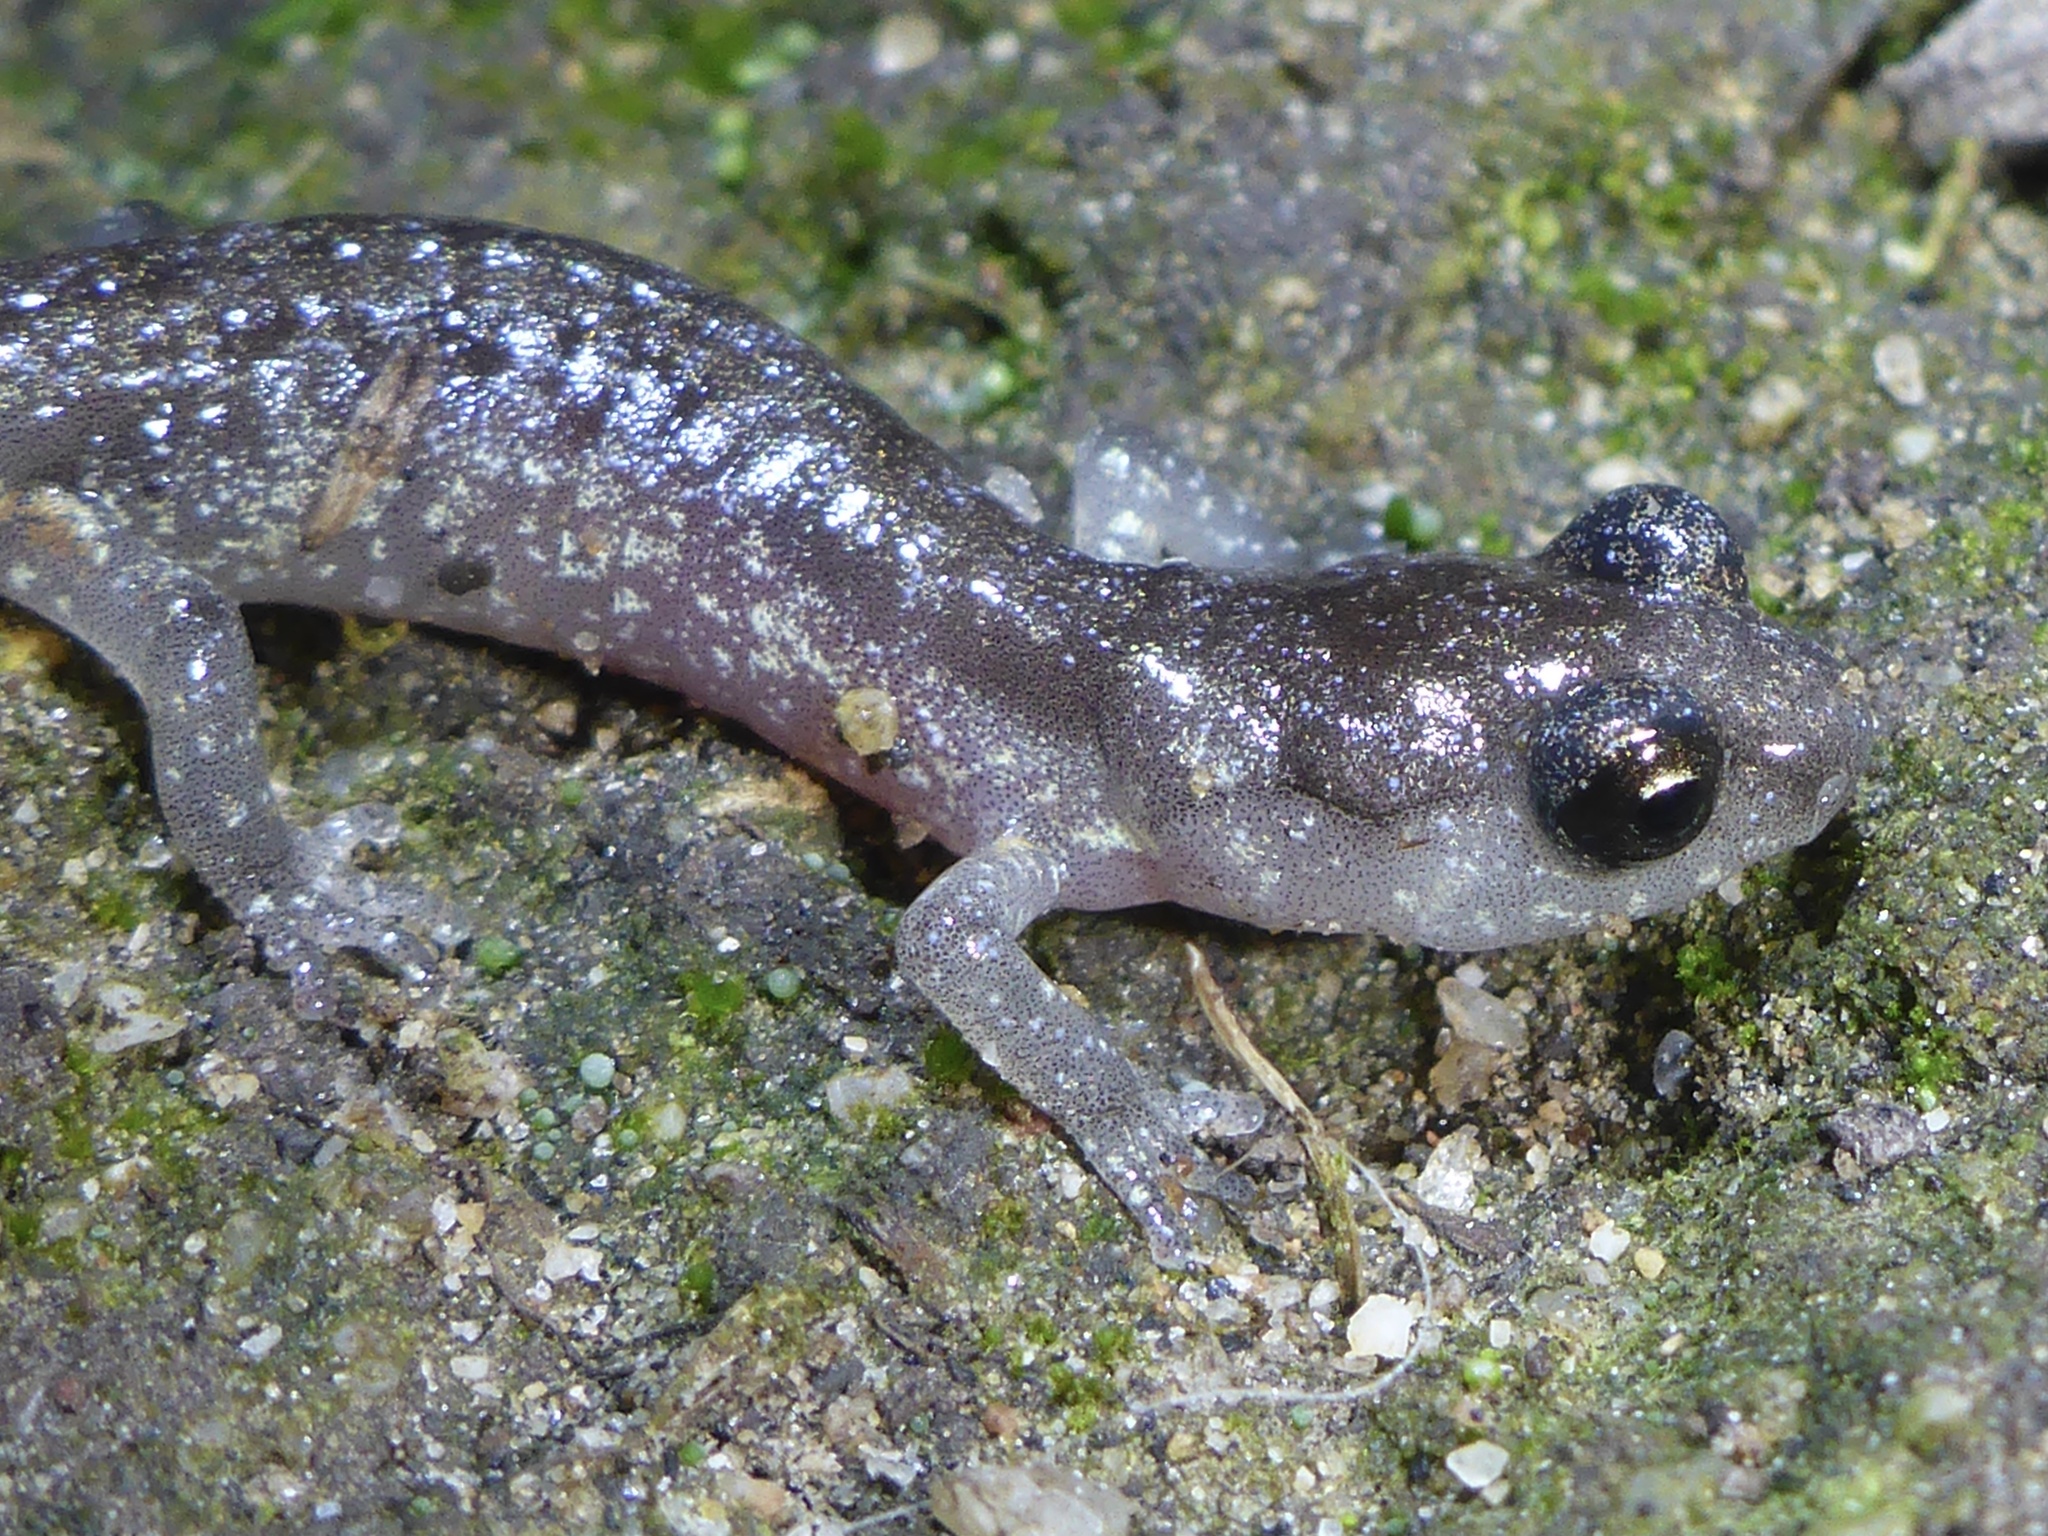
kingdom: Animalia
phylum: Chordata
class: Amphibia
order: Caudata
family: Plethodontidae
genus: Aneides
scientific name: Aneides lugubris
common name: Arboreal salamander
